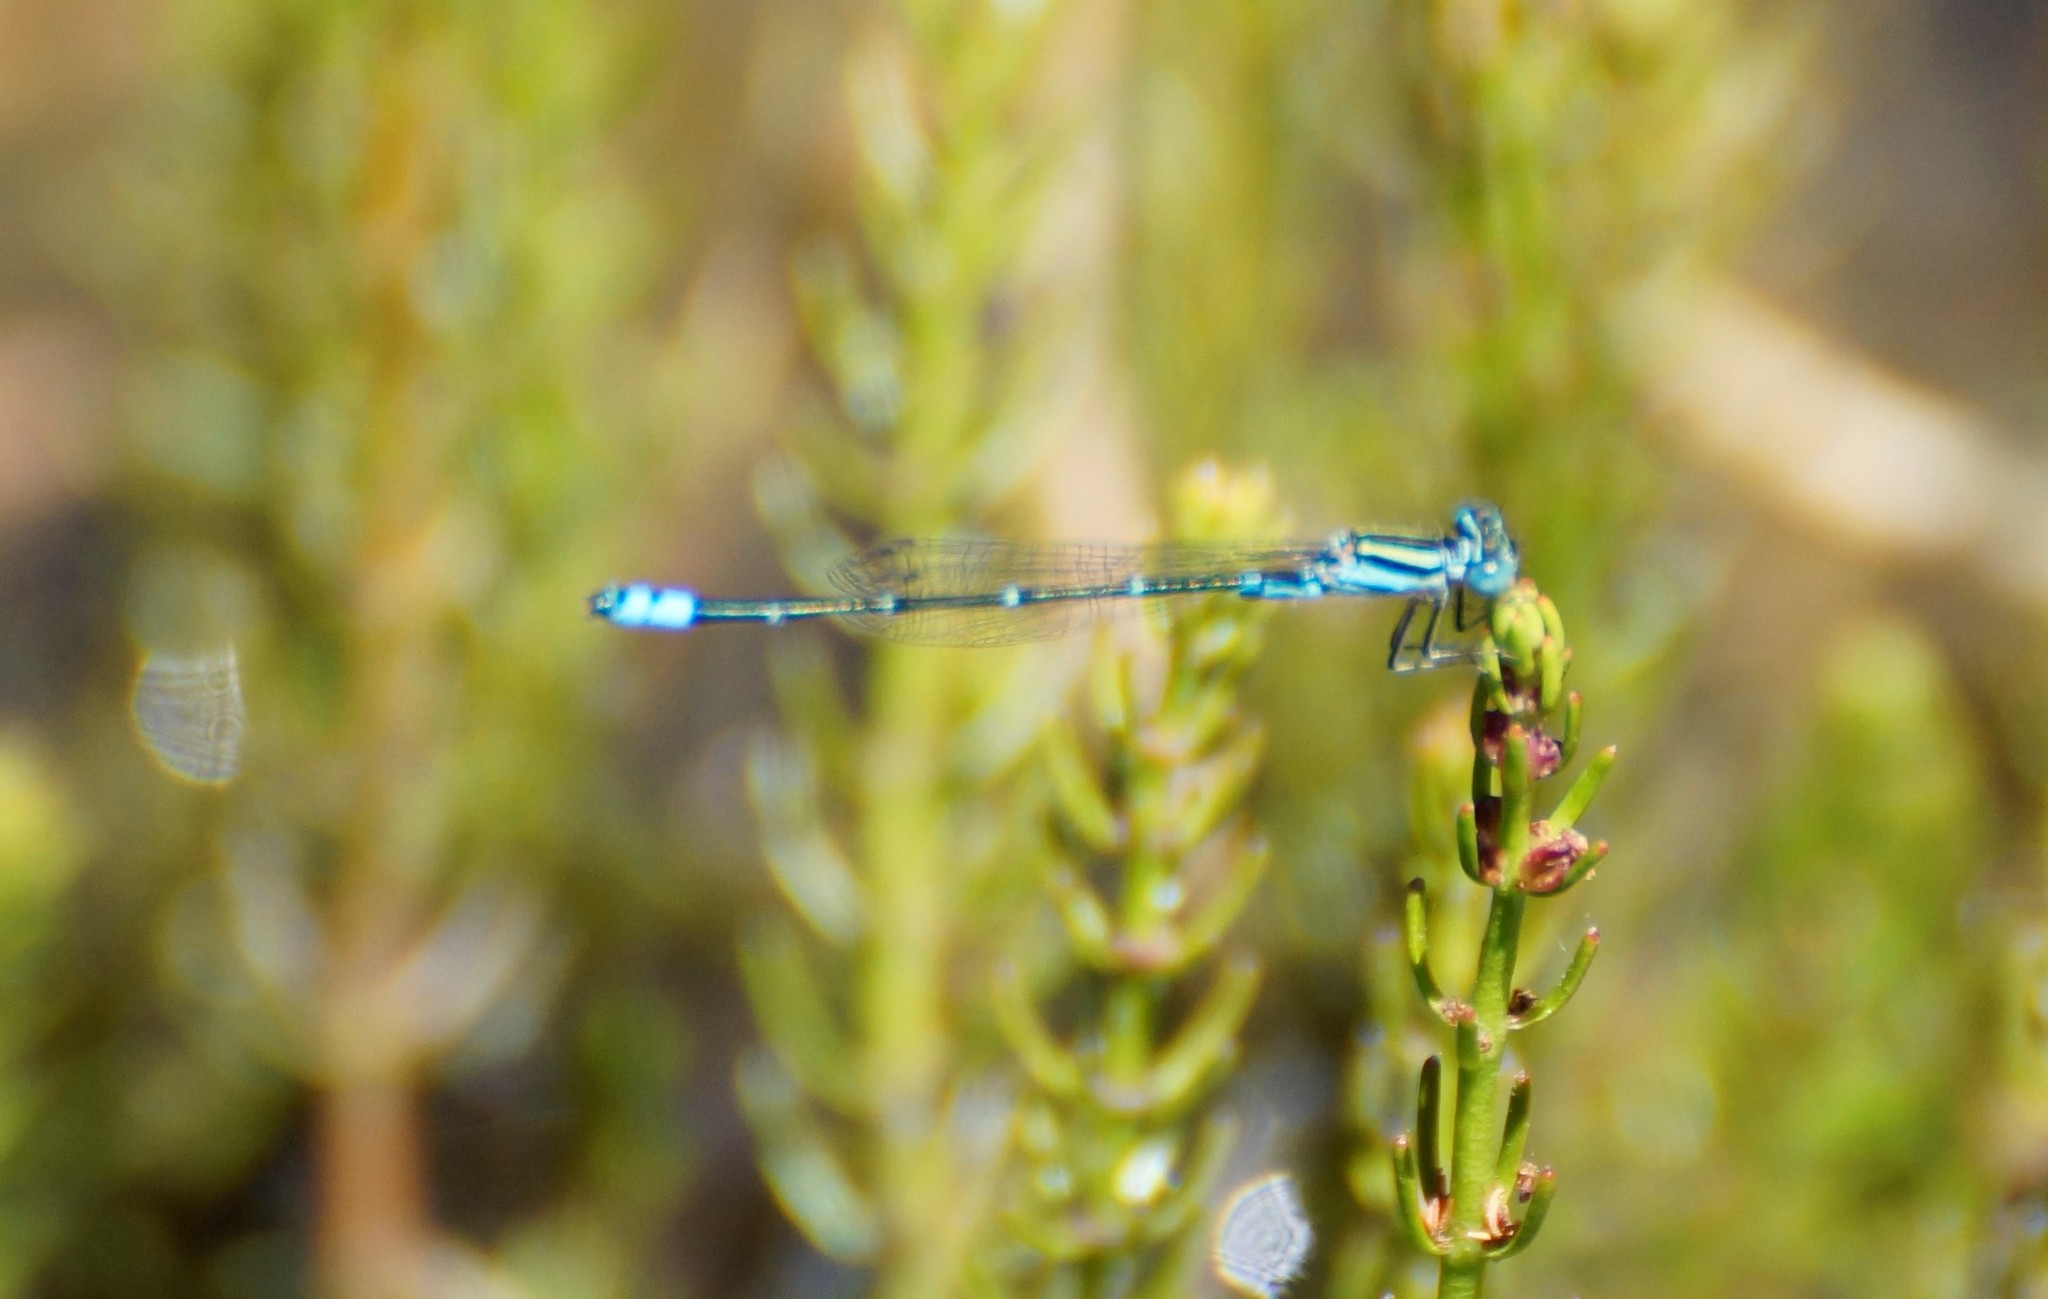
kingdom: Animalia
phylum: Arthropoda
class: Insecta
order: Odonata
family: Coenagrionidae
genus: Austroagrion
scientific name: Austroagrion watsoni
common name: Eastern billabongfly
